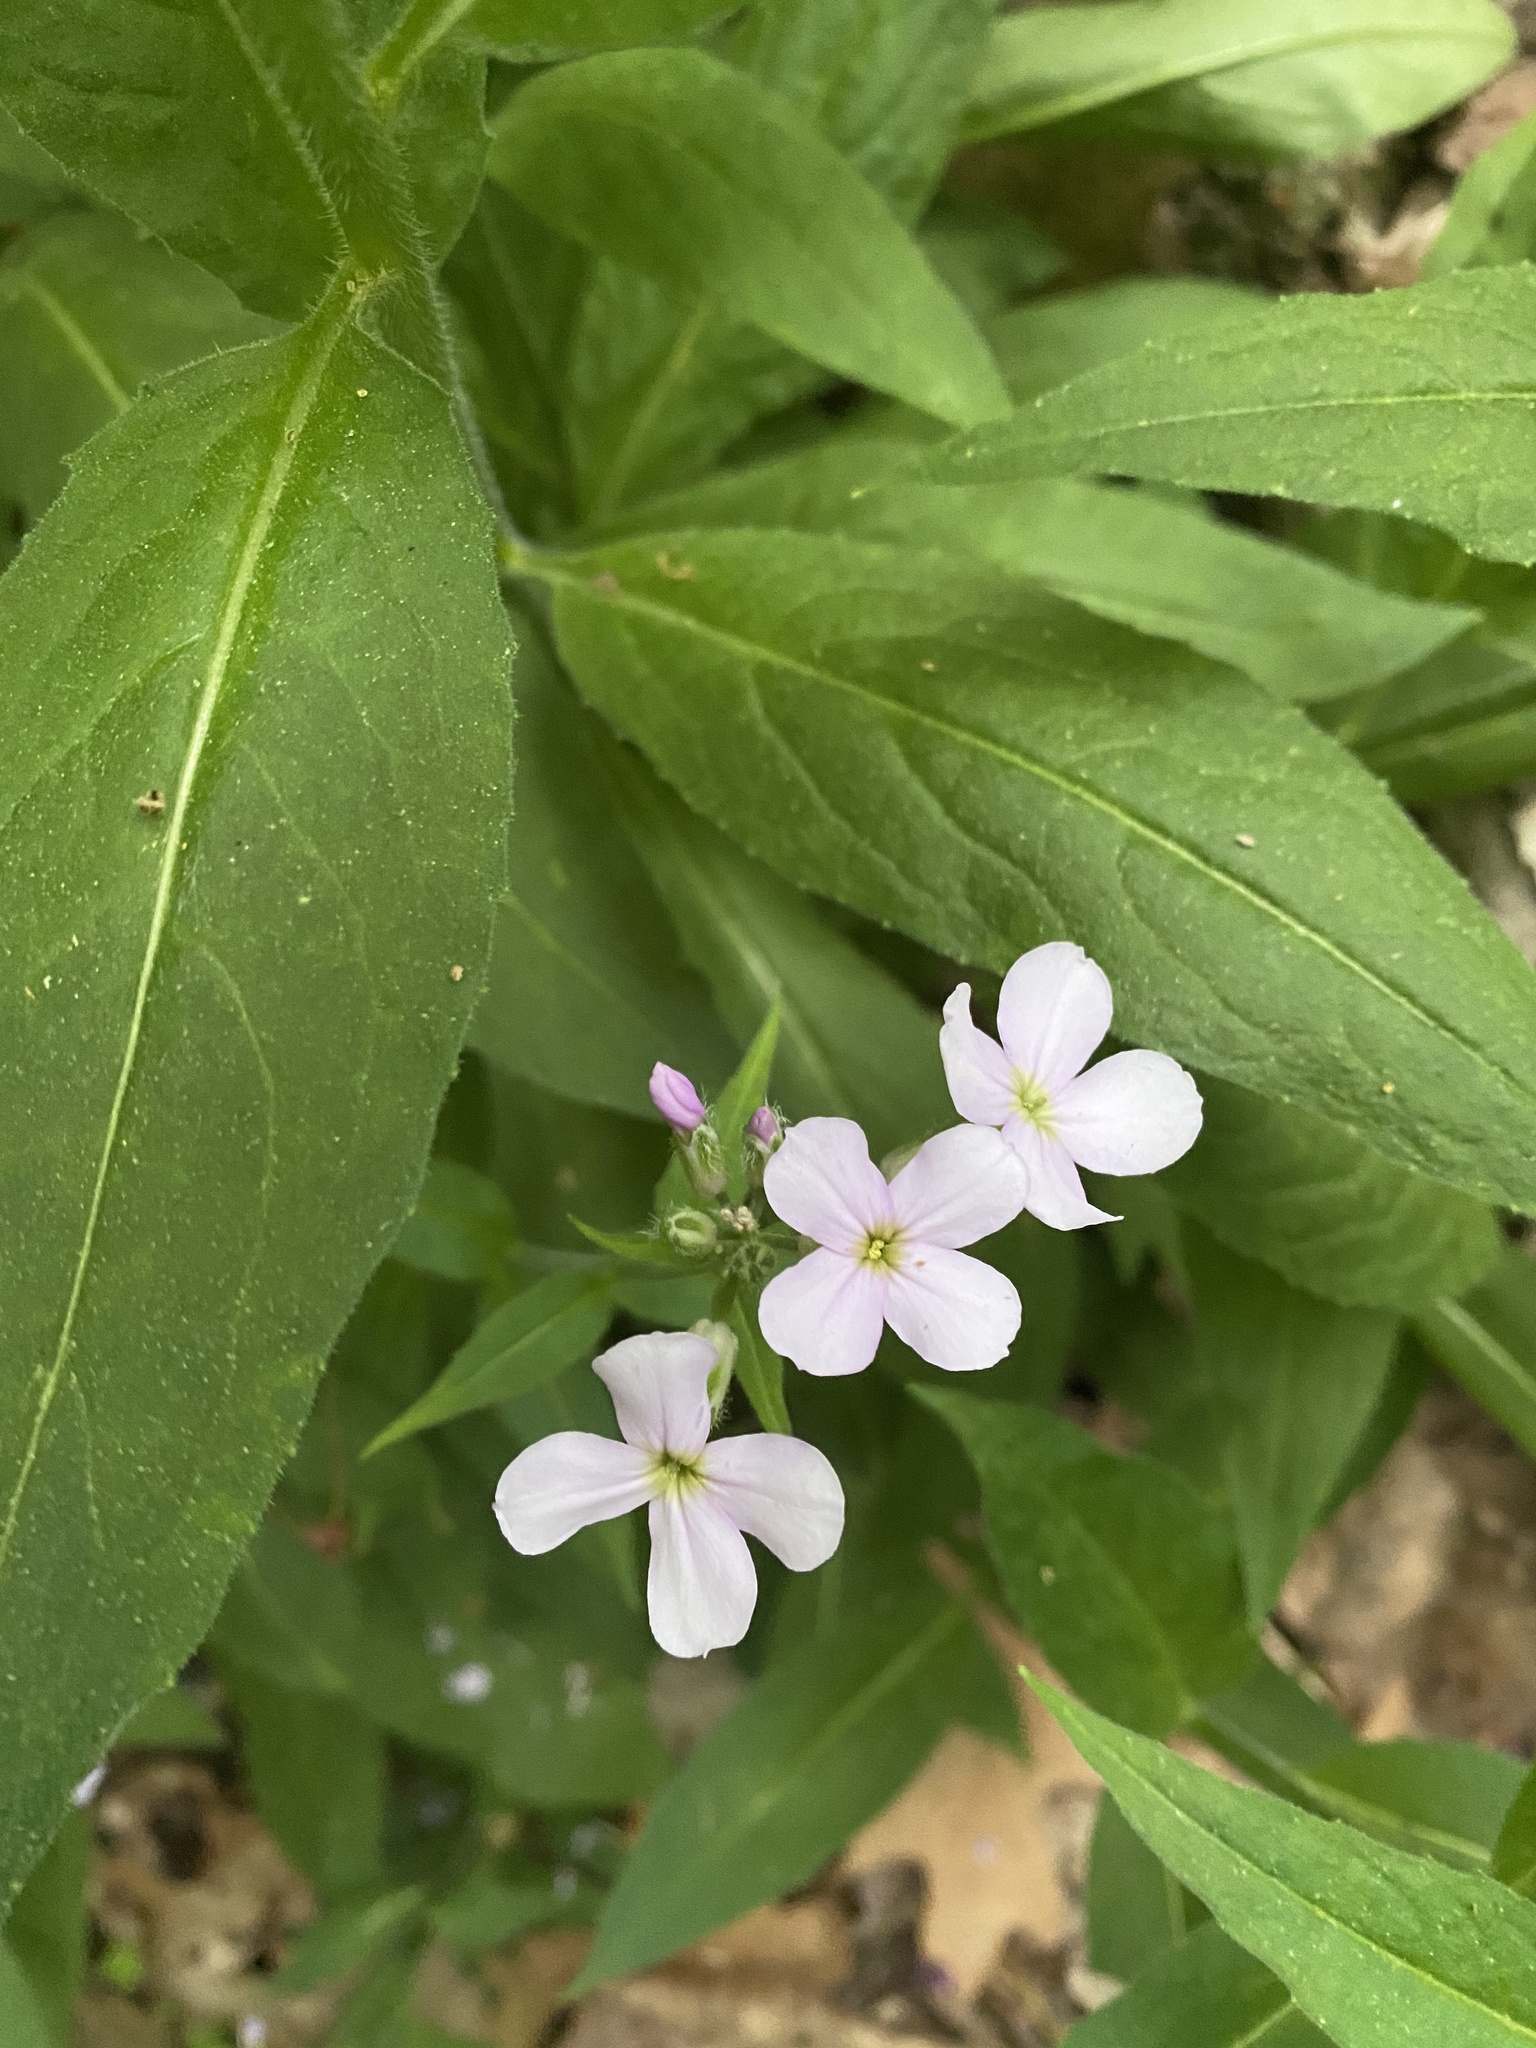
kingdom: Plantae
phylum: Tracheophyta
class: Magnoliopsida
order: Brassicales
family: Brassicaceae
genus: Hesperis
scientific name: Hesperis matronalis
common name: Dame's-violet
